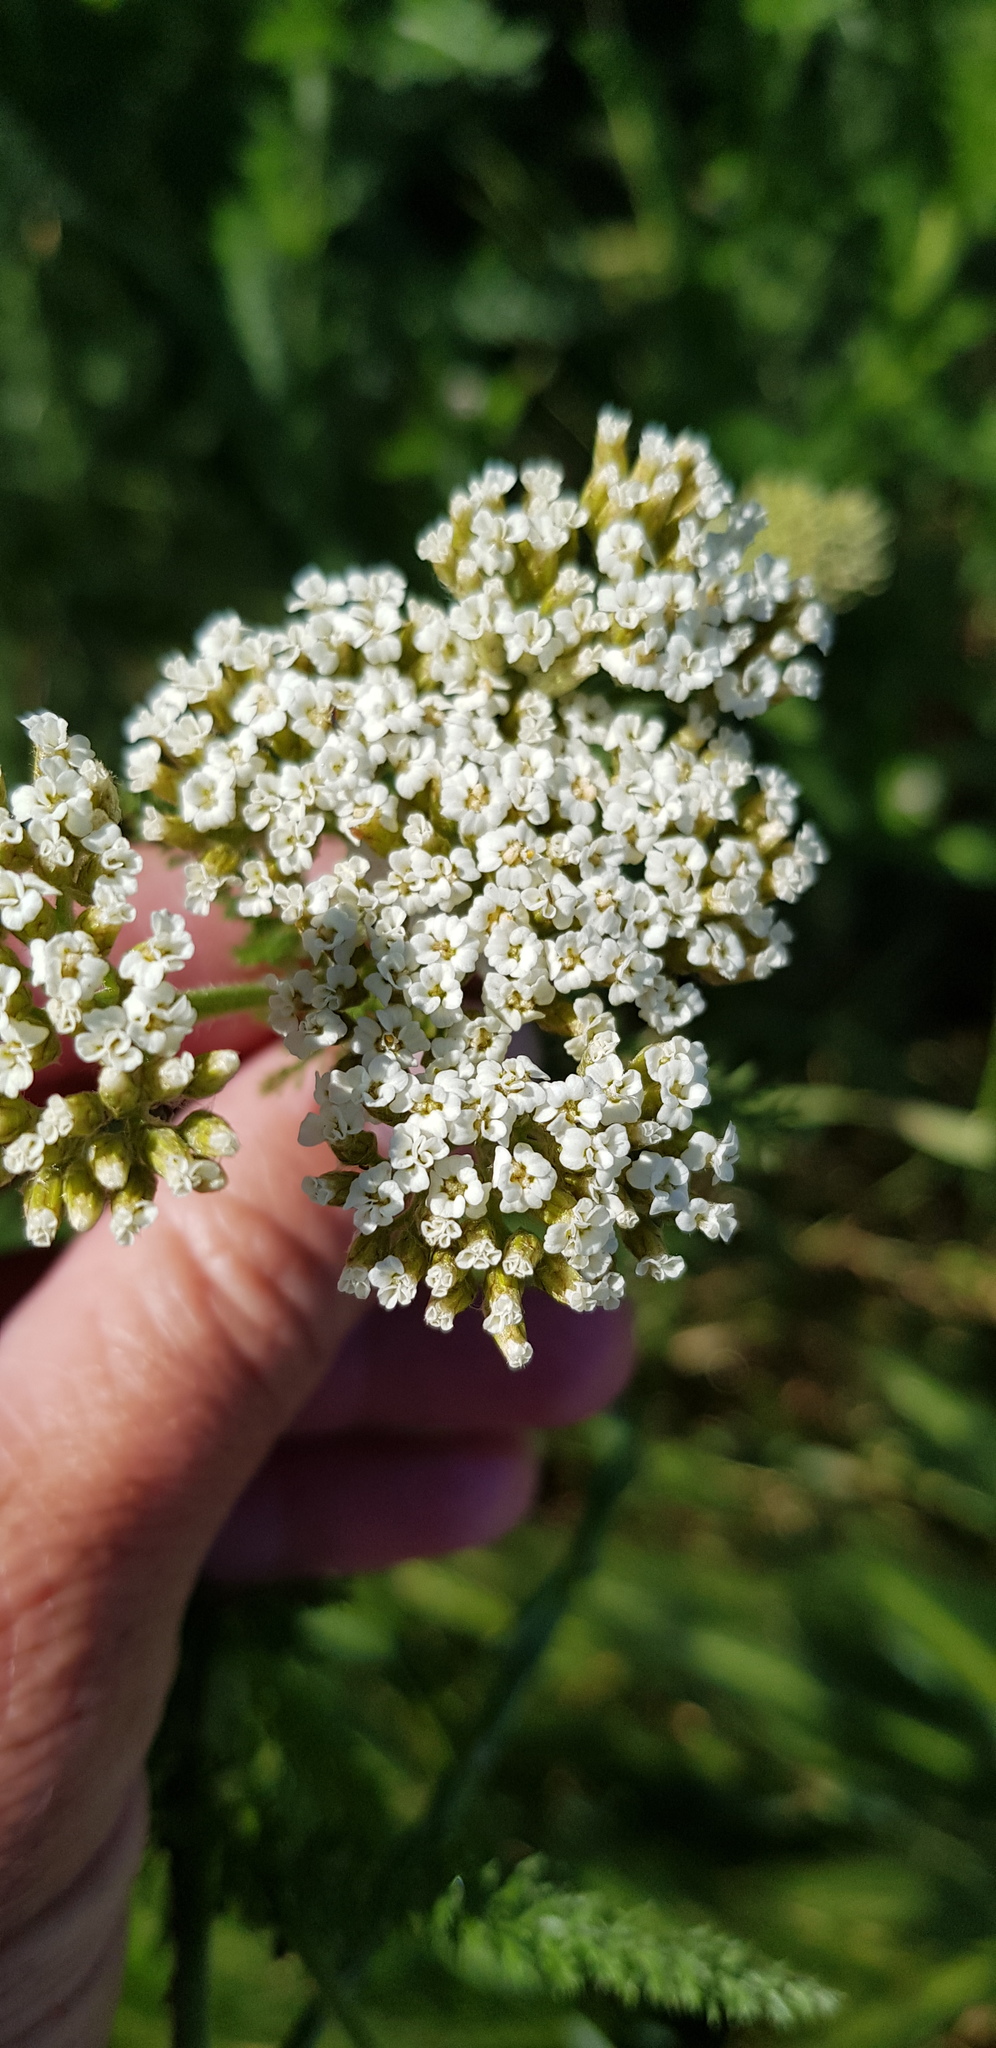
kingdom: Plantae
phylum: Tracheophyta
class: Magnoliopsida
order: Asterales
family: Asteraceae
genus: Achillea
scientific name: Achillea setacea
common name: Bristly yarrow
